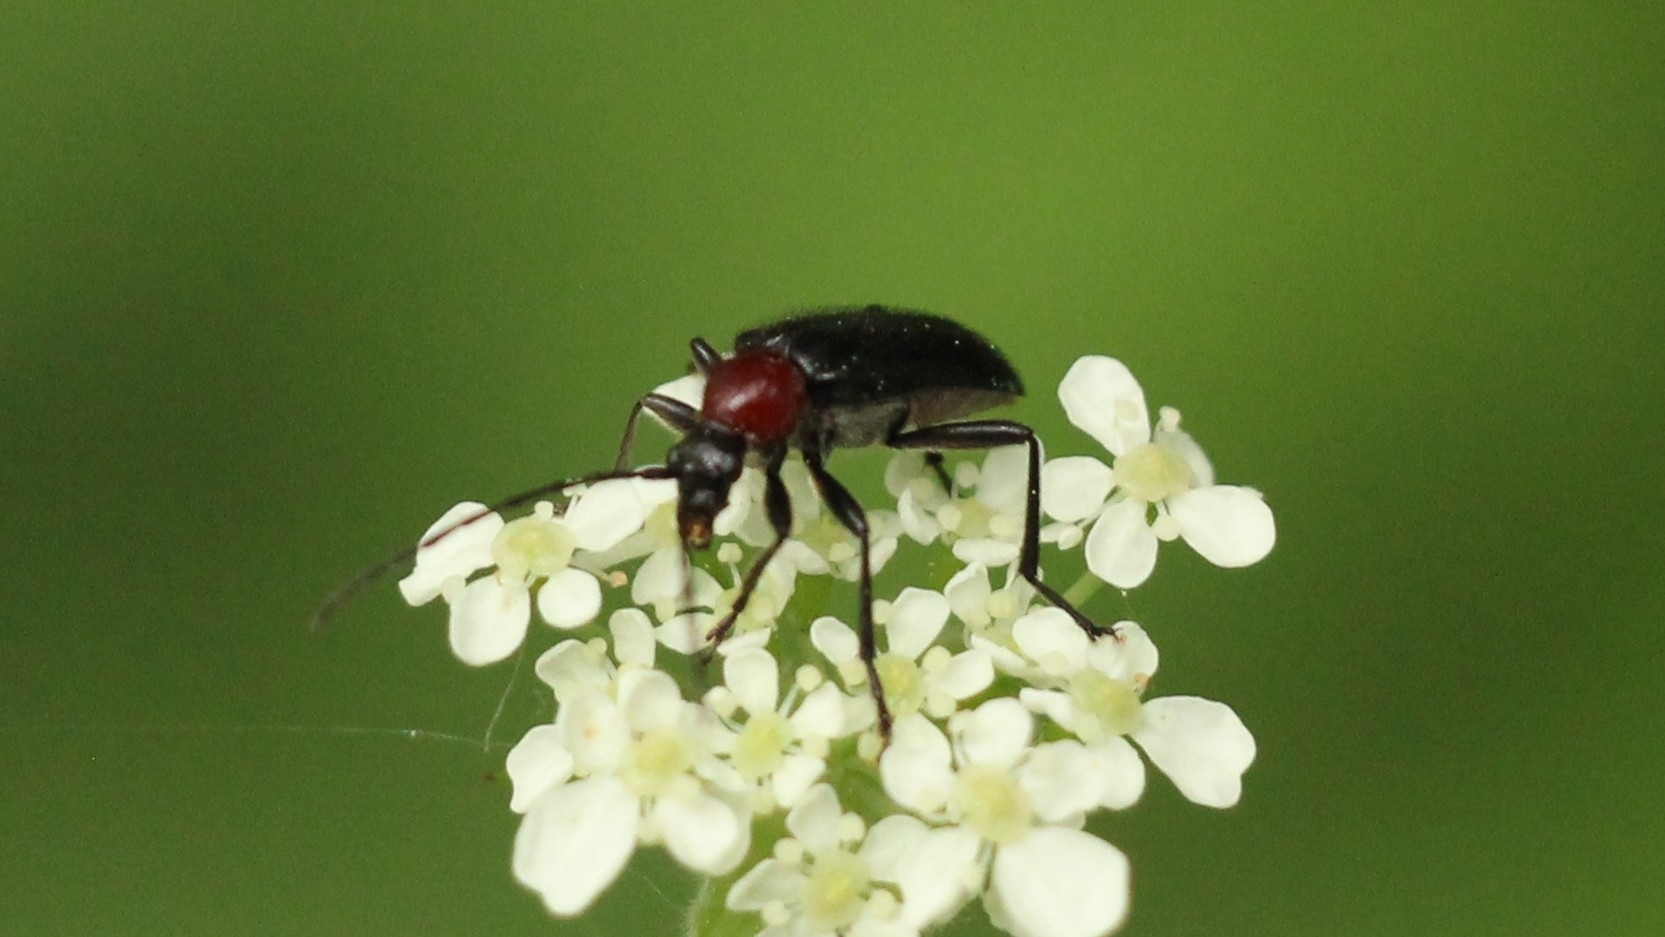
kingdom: Animalia
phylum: Arthropoda
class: Insecta
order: Coleoptera
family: Cerambycidae
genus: Dinoptera
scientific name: Dinoptera collaris
